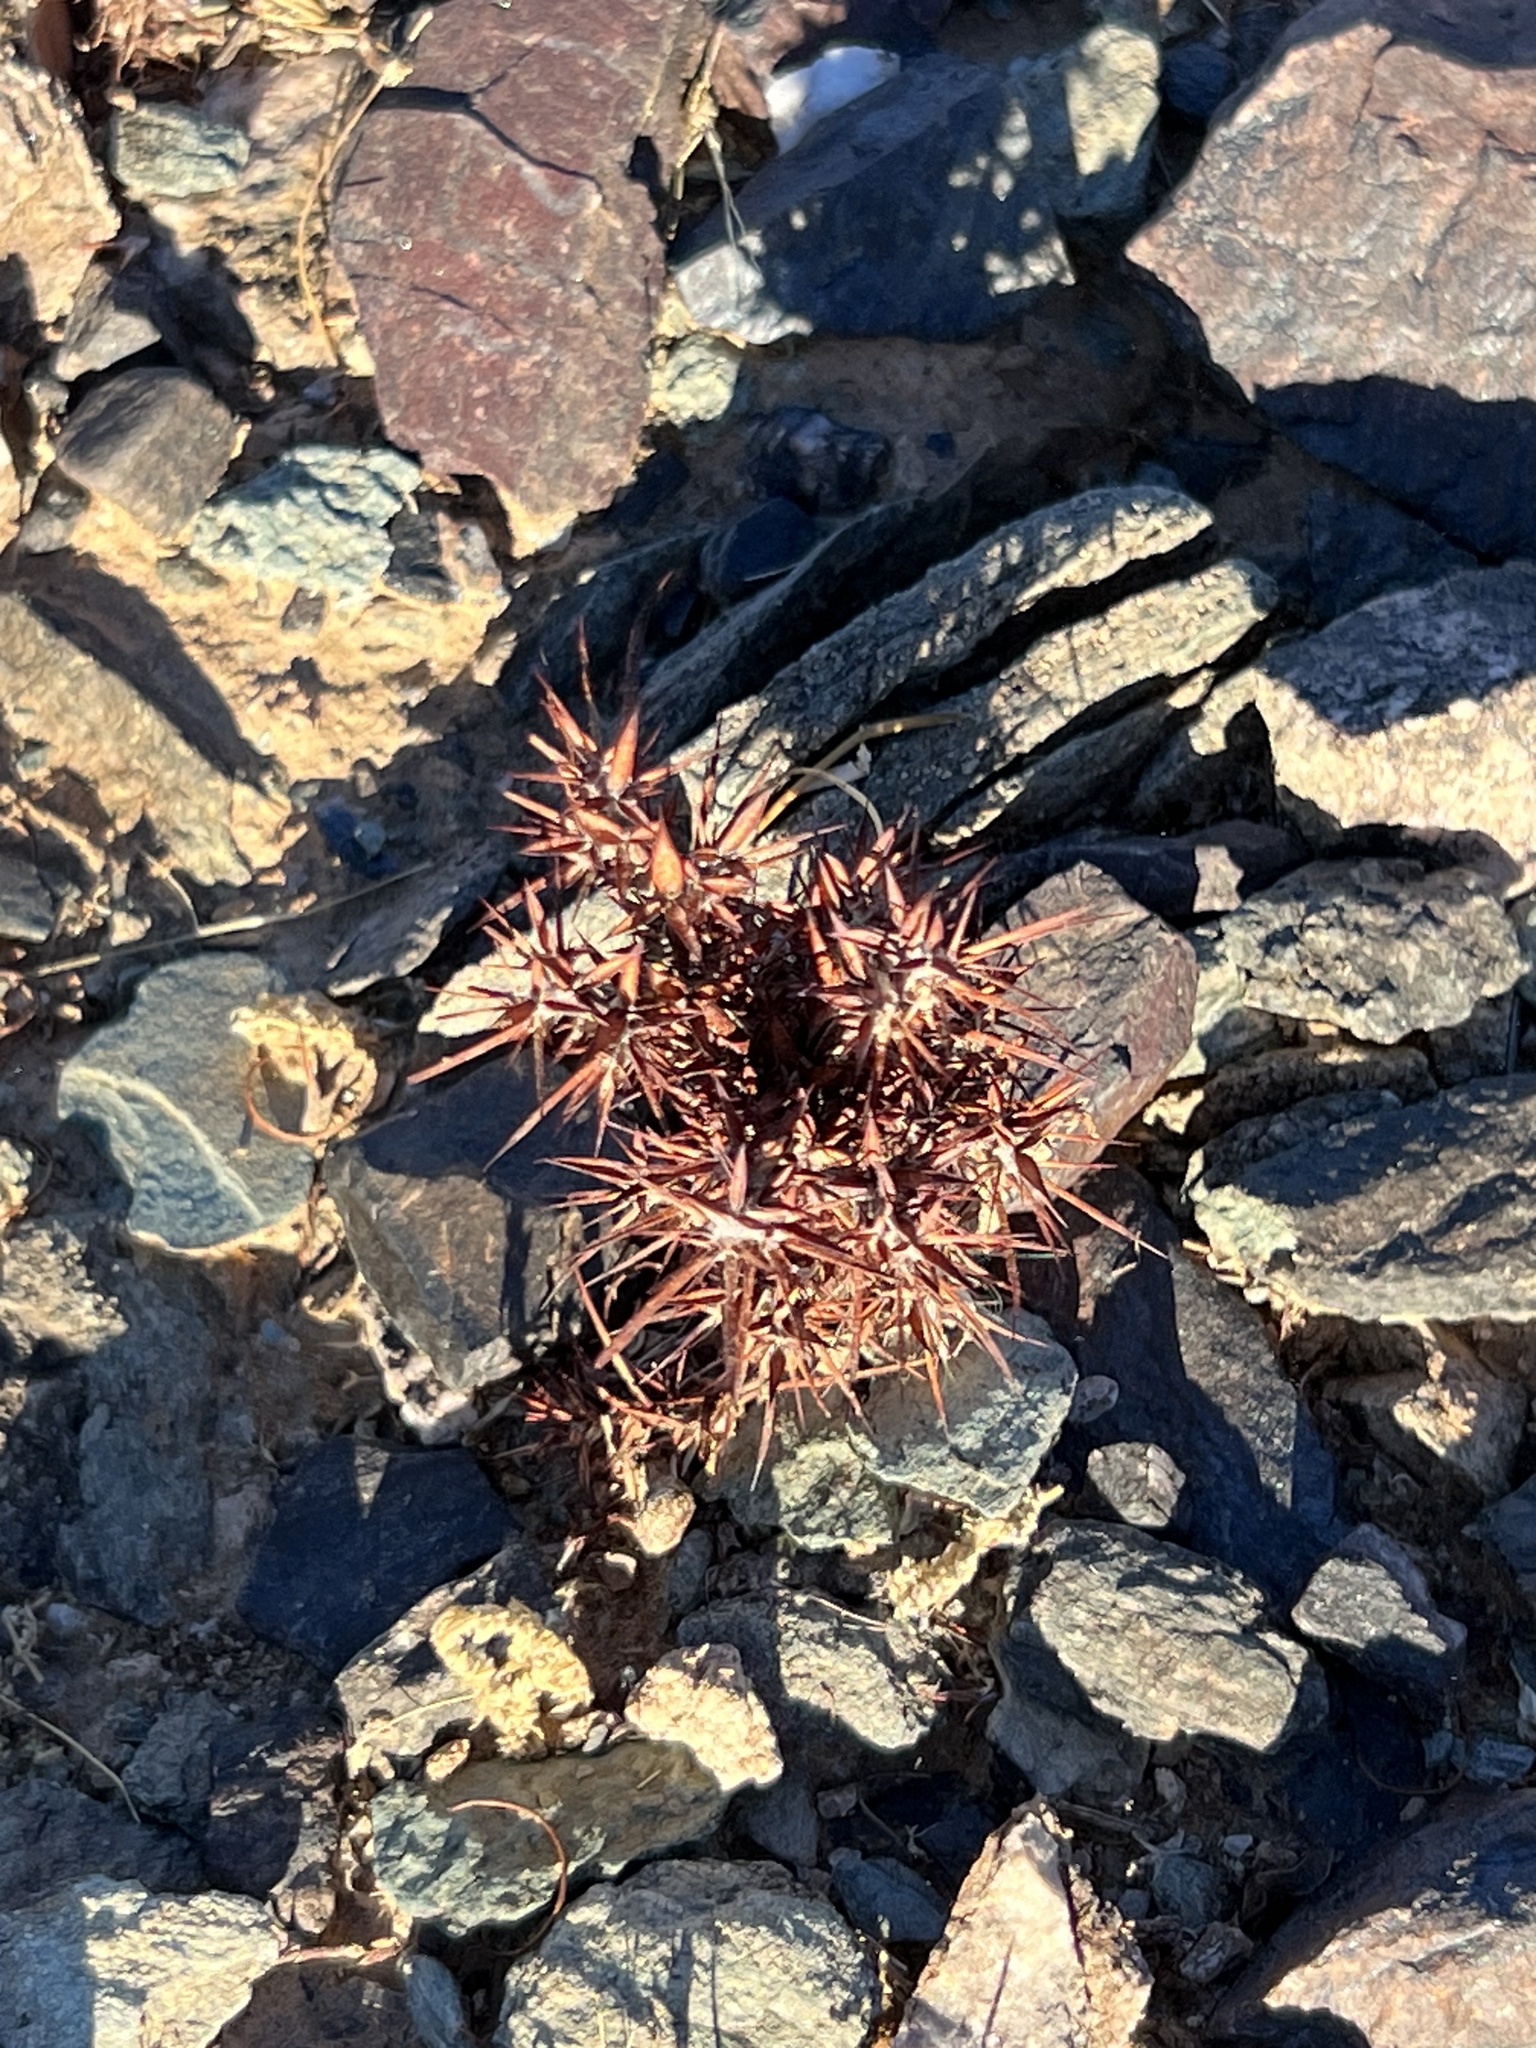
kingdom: Plantae
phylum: Tracheophyta
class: Magnoliopsida
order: Caryophyllales
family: Polygonaceae
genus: Chorizanthe
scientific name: Chorizanthe rigida
